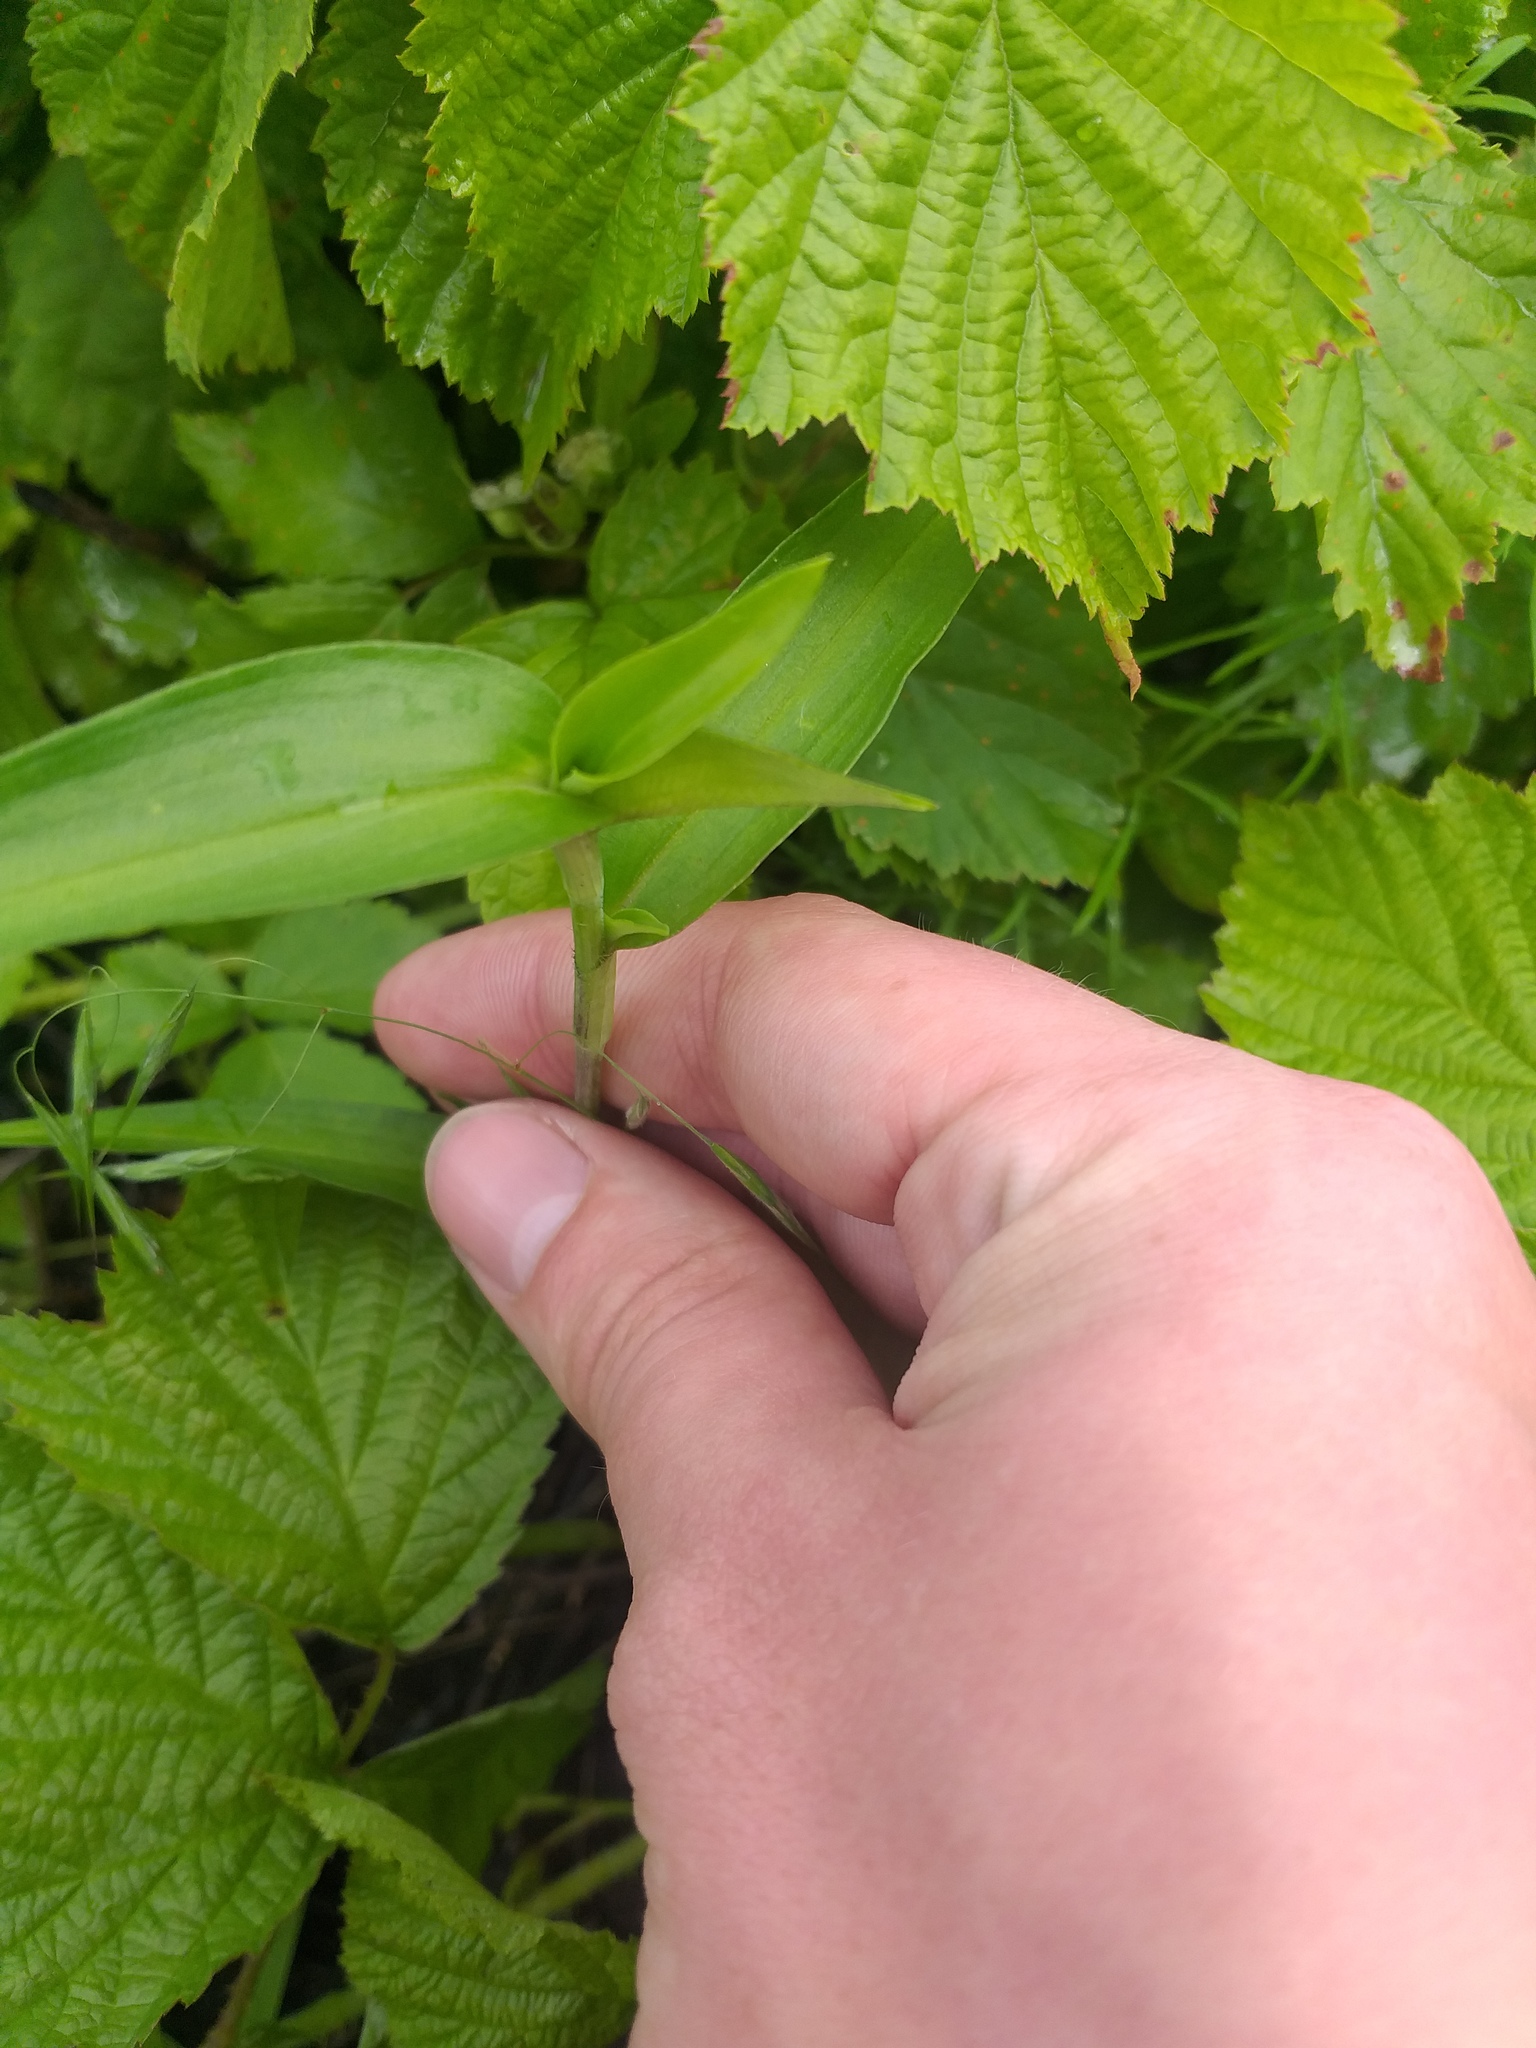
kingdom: Plantae
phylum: Tracheophyta
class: Liliopsida
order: Commelinales
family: Commelinaceae
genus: Commelina
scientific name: Commelina communis
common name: Asiatic dayflower
